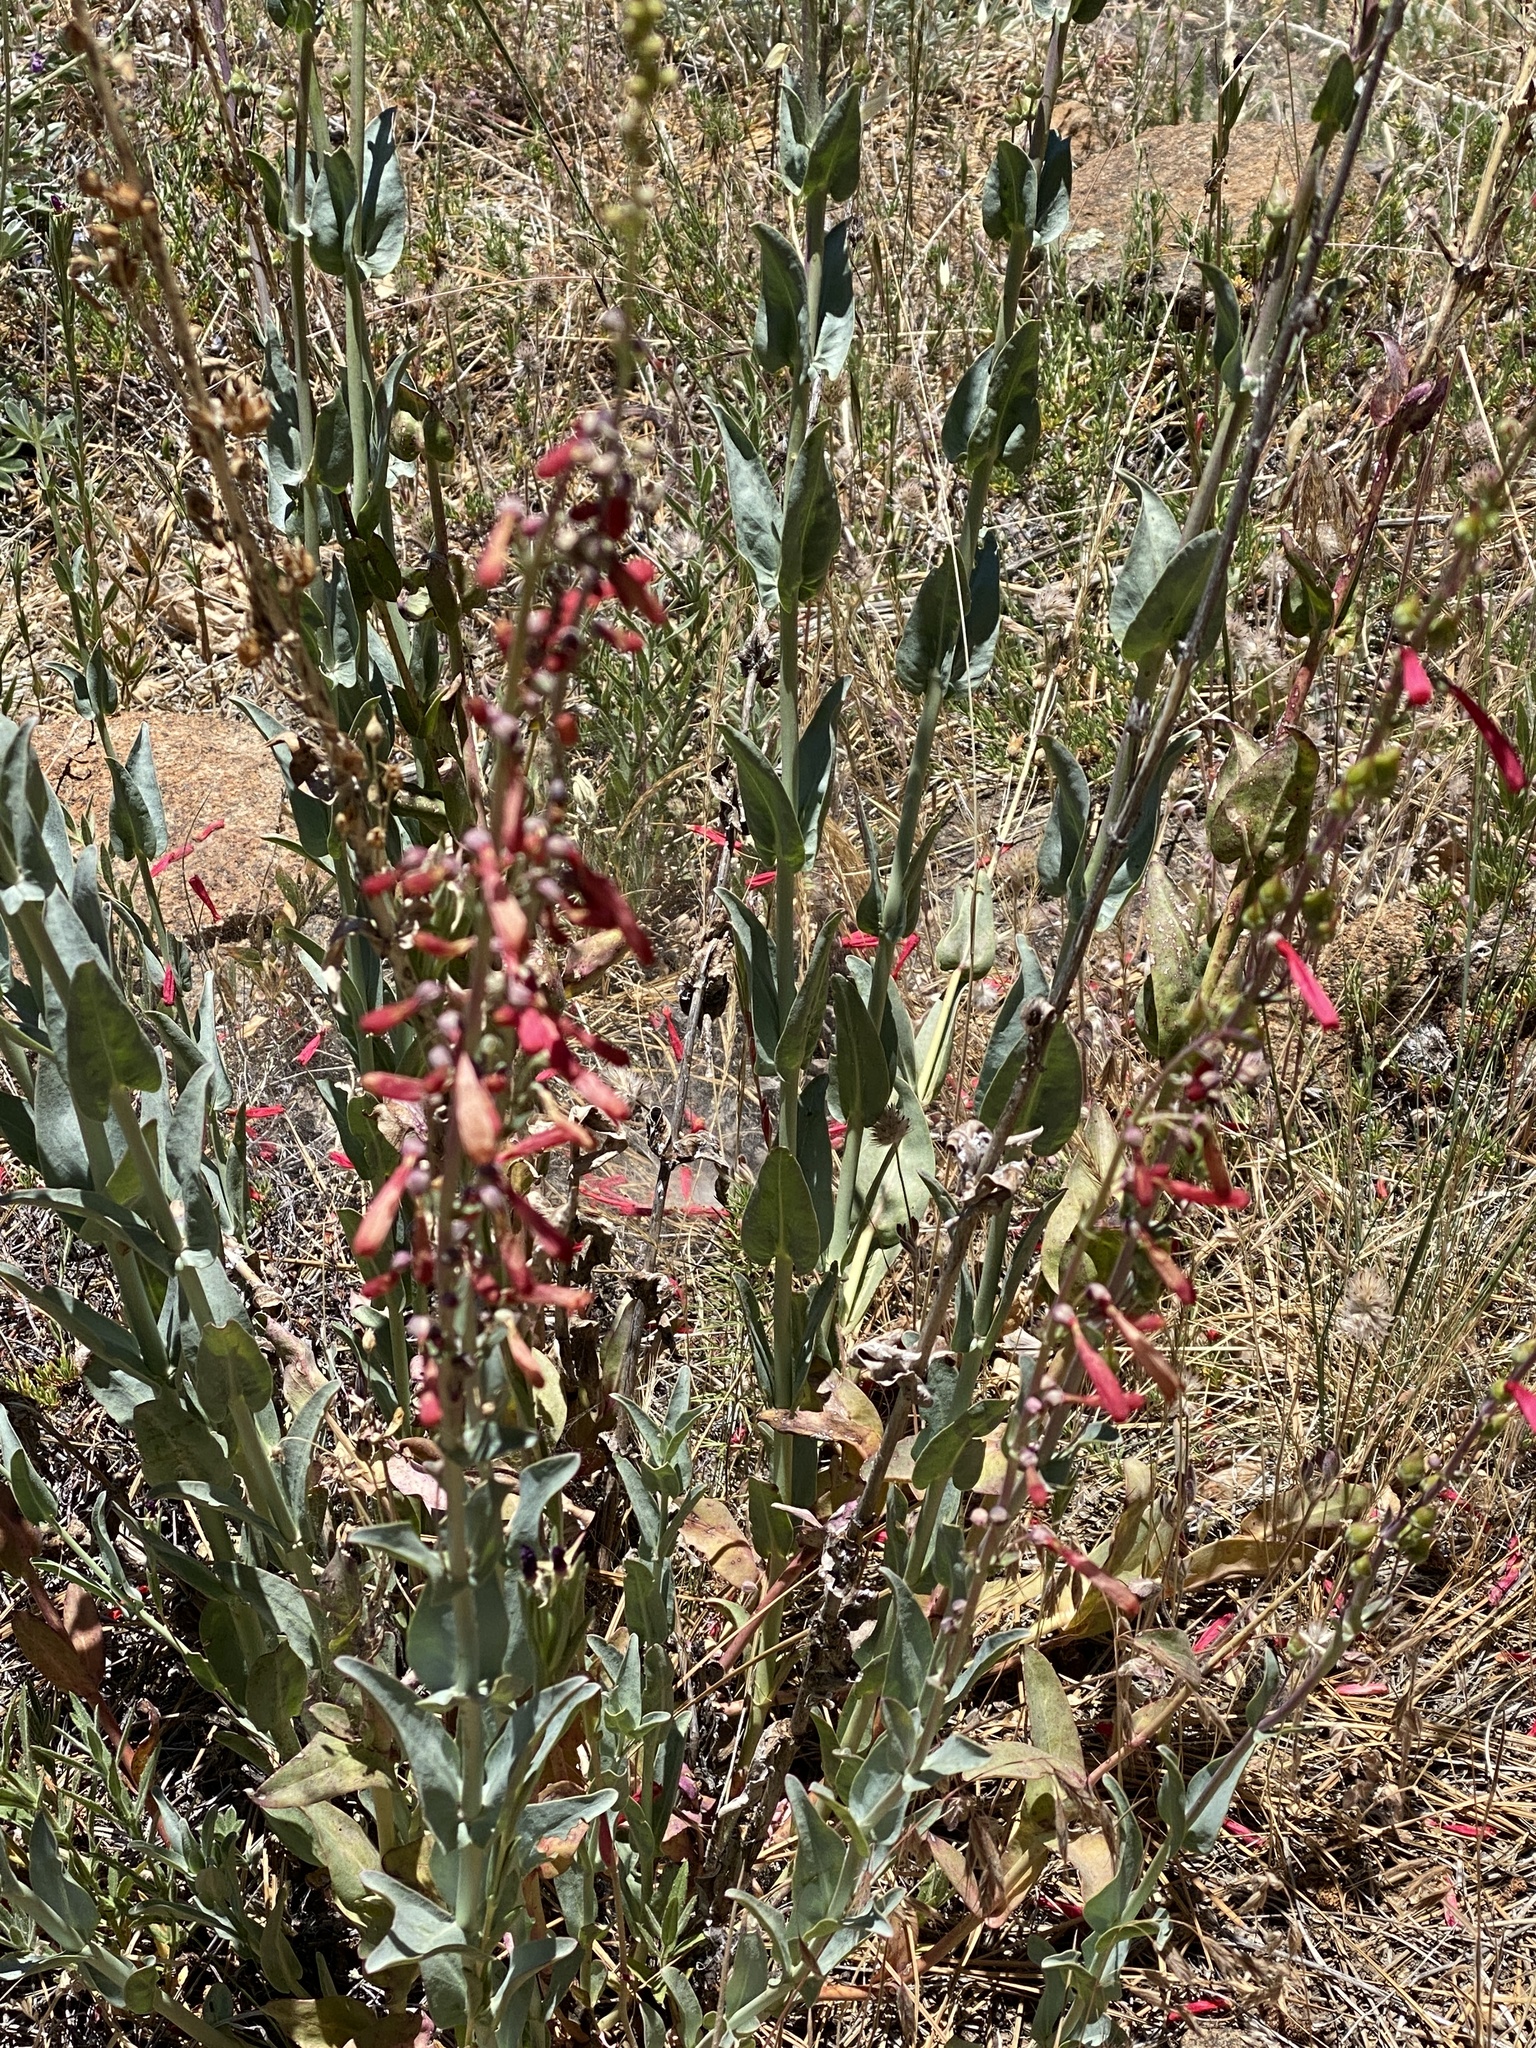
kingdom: Plantae
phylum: Tracheophyta
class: Magnoliopsida
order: Lamiales
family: Plantaginaceae
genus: Penstemon
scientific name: Penstemon centranthifolius
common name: Scarlet bugler
